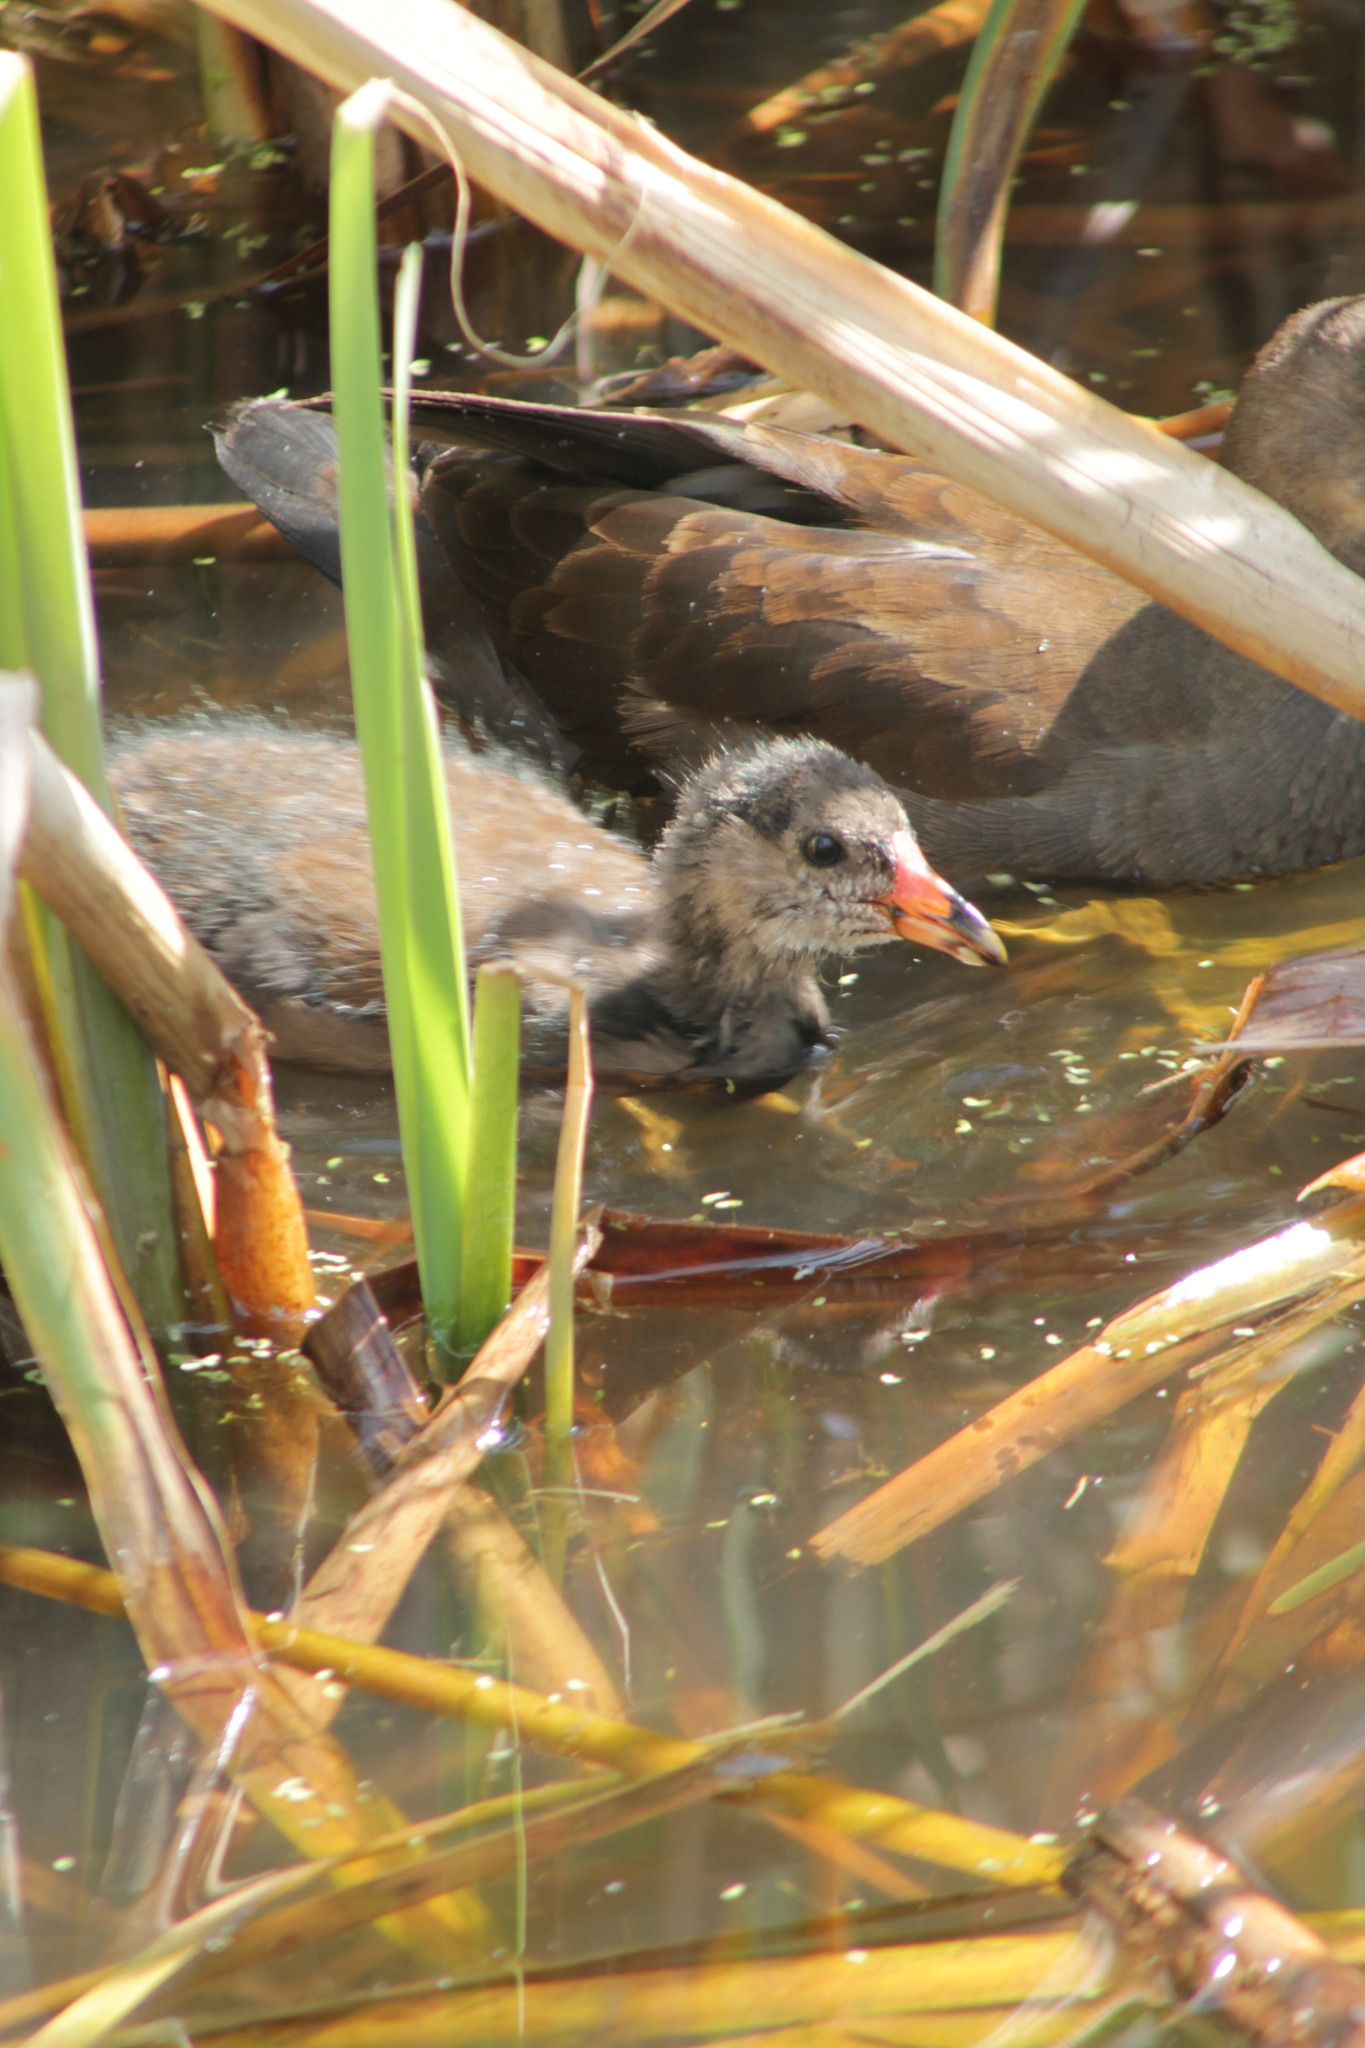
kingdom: Animalia
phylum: Chordata
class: Aves
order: Gruiformes
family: Rallidae
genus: Gallinula
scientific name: Gallinula chloropus
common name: Common moorhen
